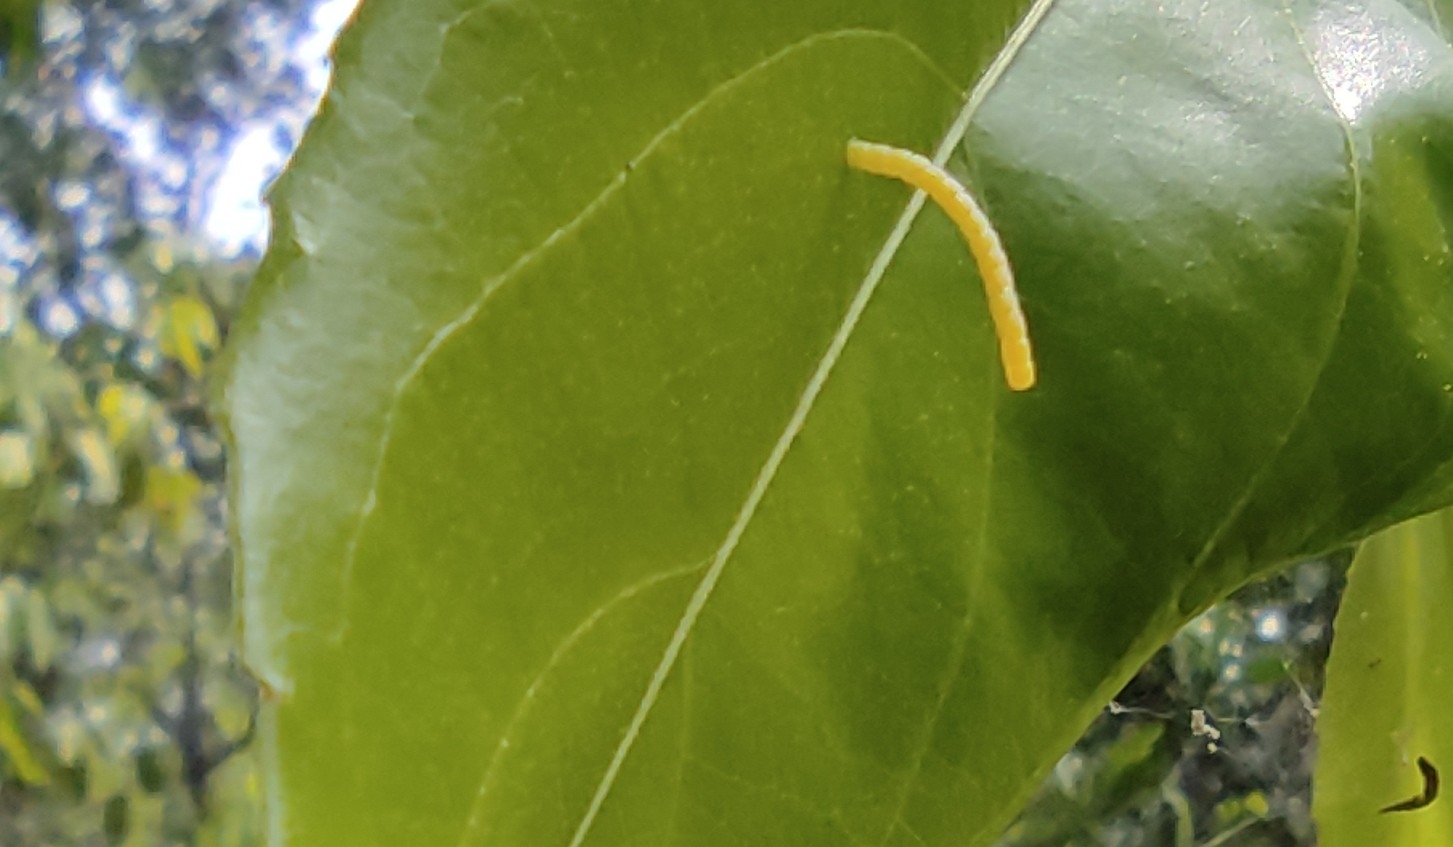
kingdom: Animalia
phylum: Arthropoda
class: Insecta
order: Lepidoptera
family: Nymphalidae
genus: Cirrochroa
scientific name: Cirrochroa thais
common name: Tamil yeoman
